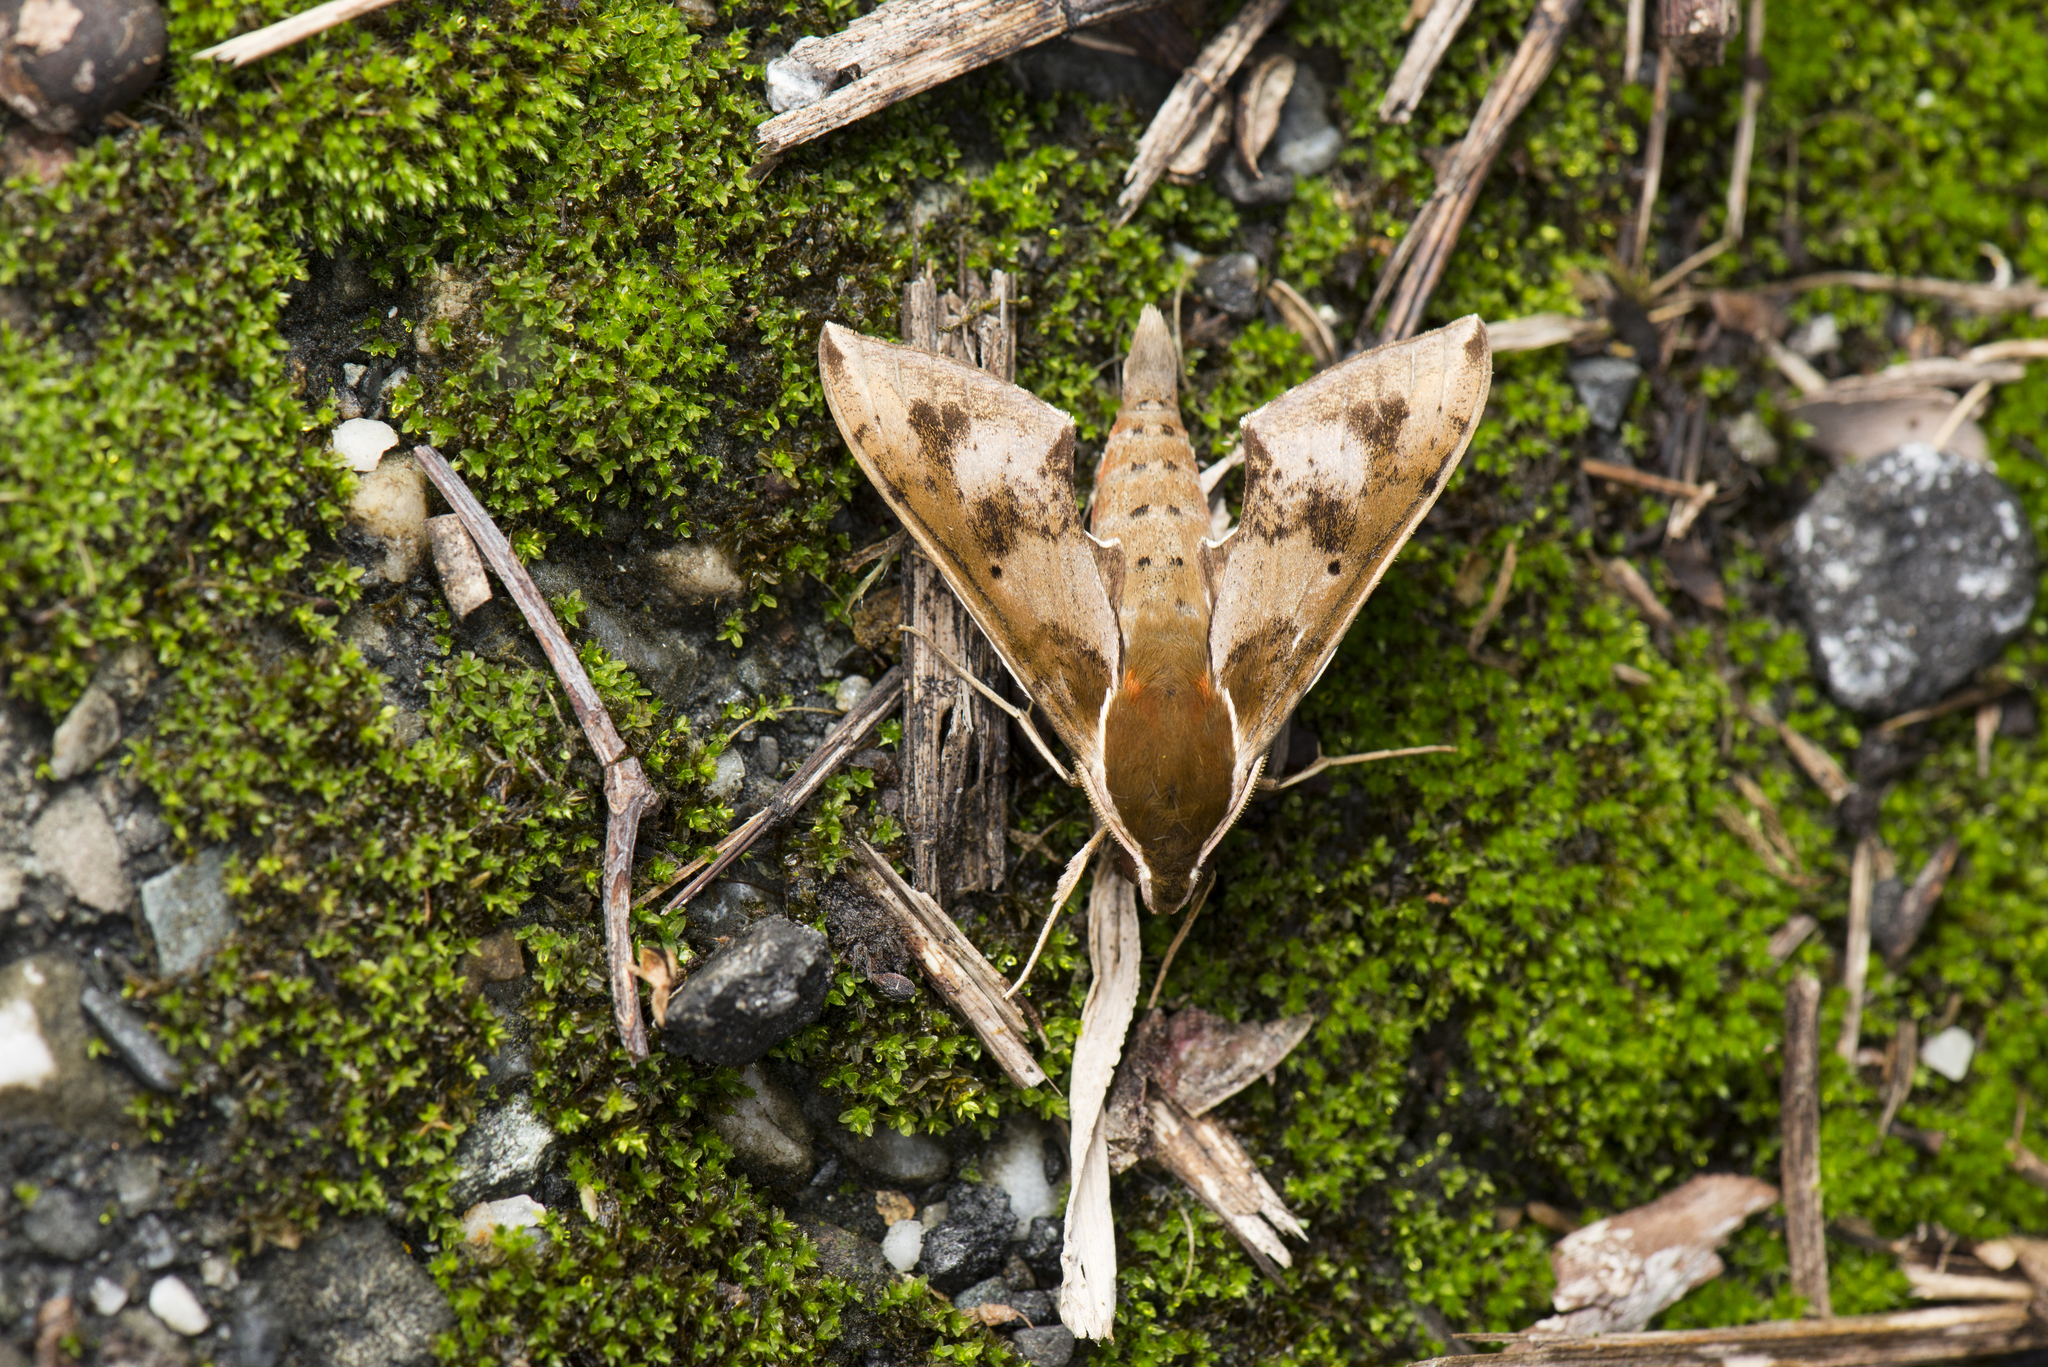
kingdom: Animalia
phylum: Arthropoda
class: Insecta
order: Lepidoptera
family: Sphingidae
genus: Rhagastis
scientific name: Rhagastis binoculata
